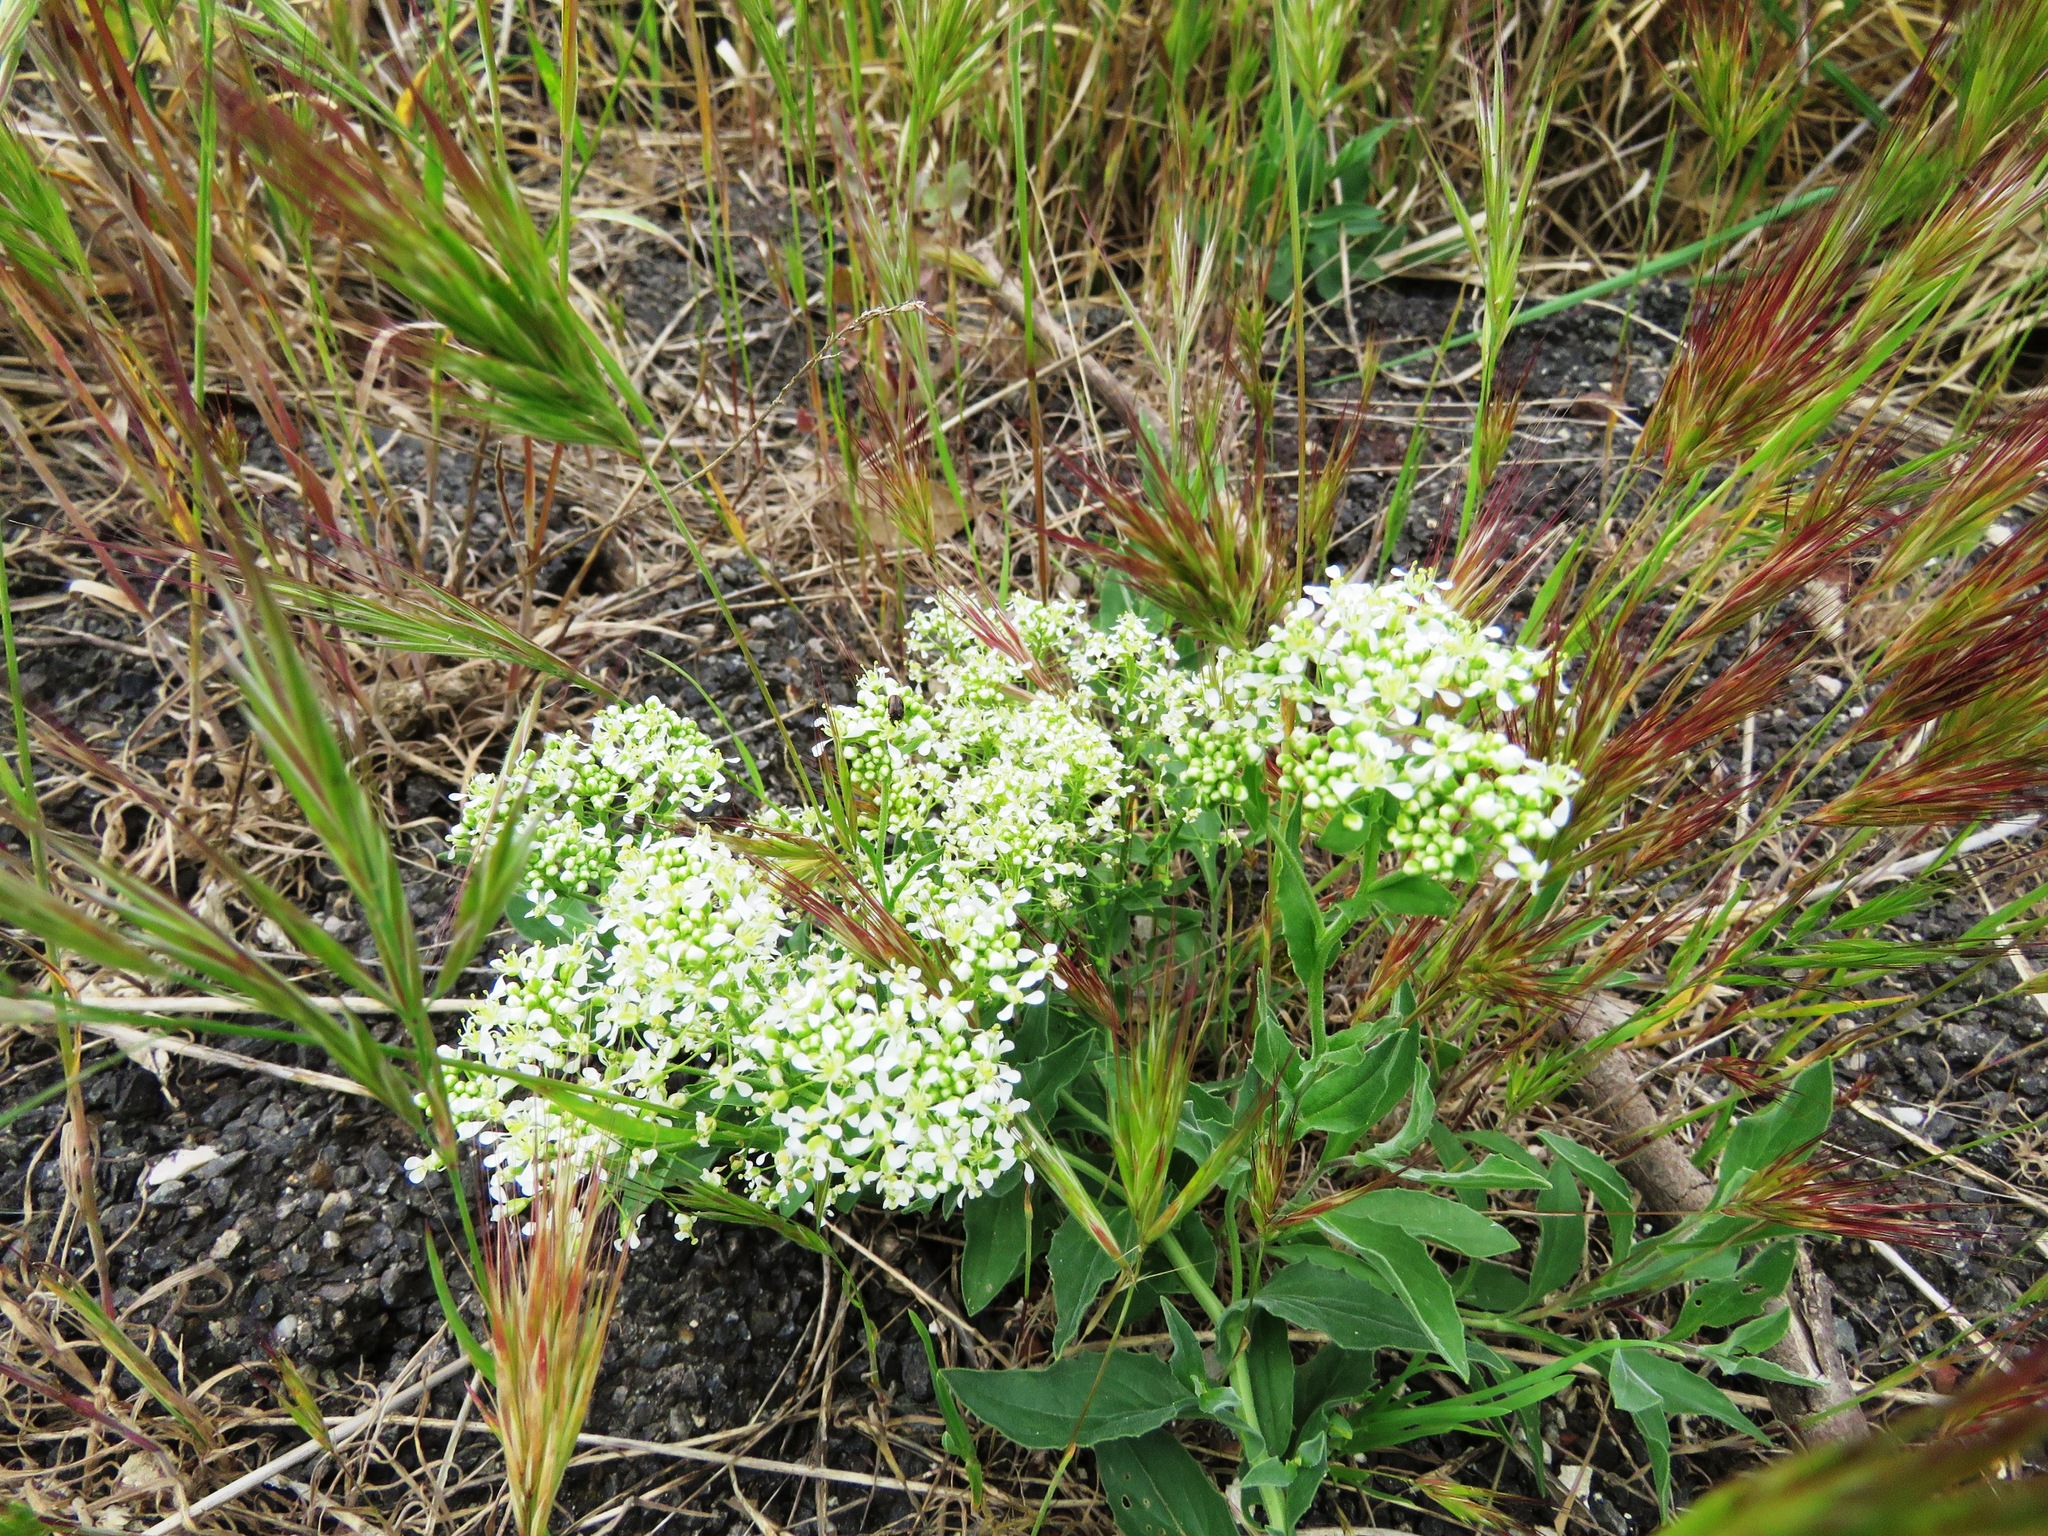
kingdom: Plantae
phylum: Tracheophyta
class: Magnoliopsida
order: Brassicales
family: Brassicaceae
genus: Lepidium
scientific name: Lepidium draba
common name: Hoary cress
